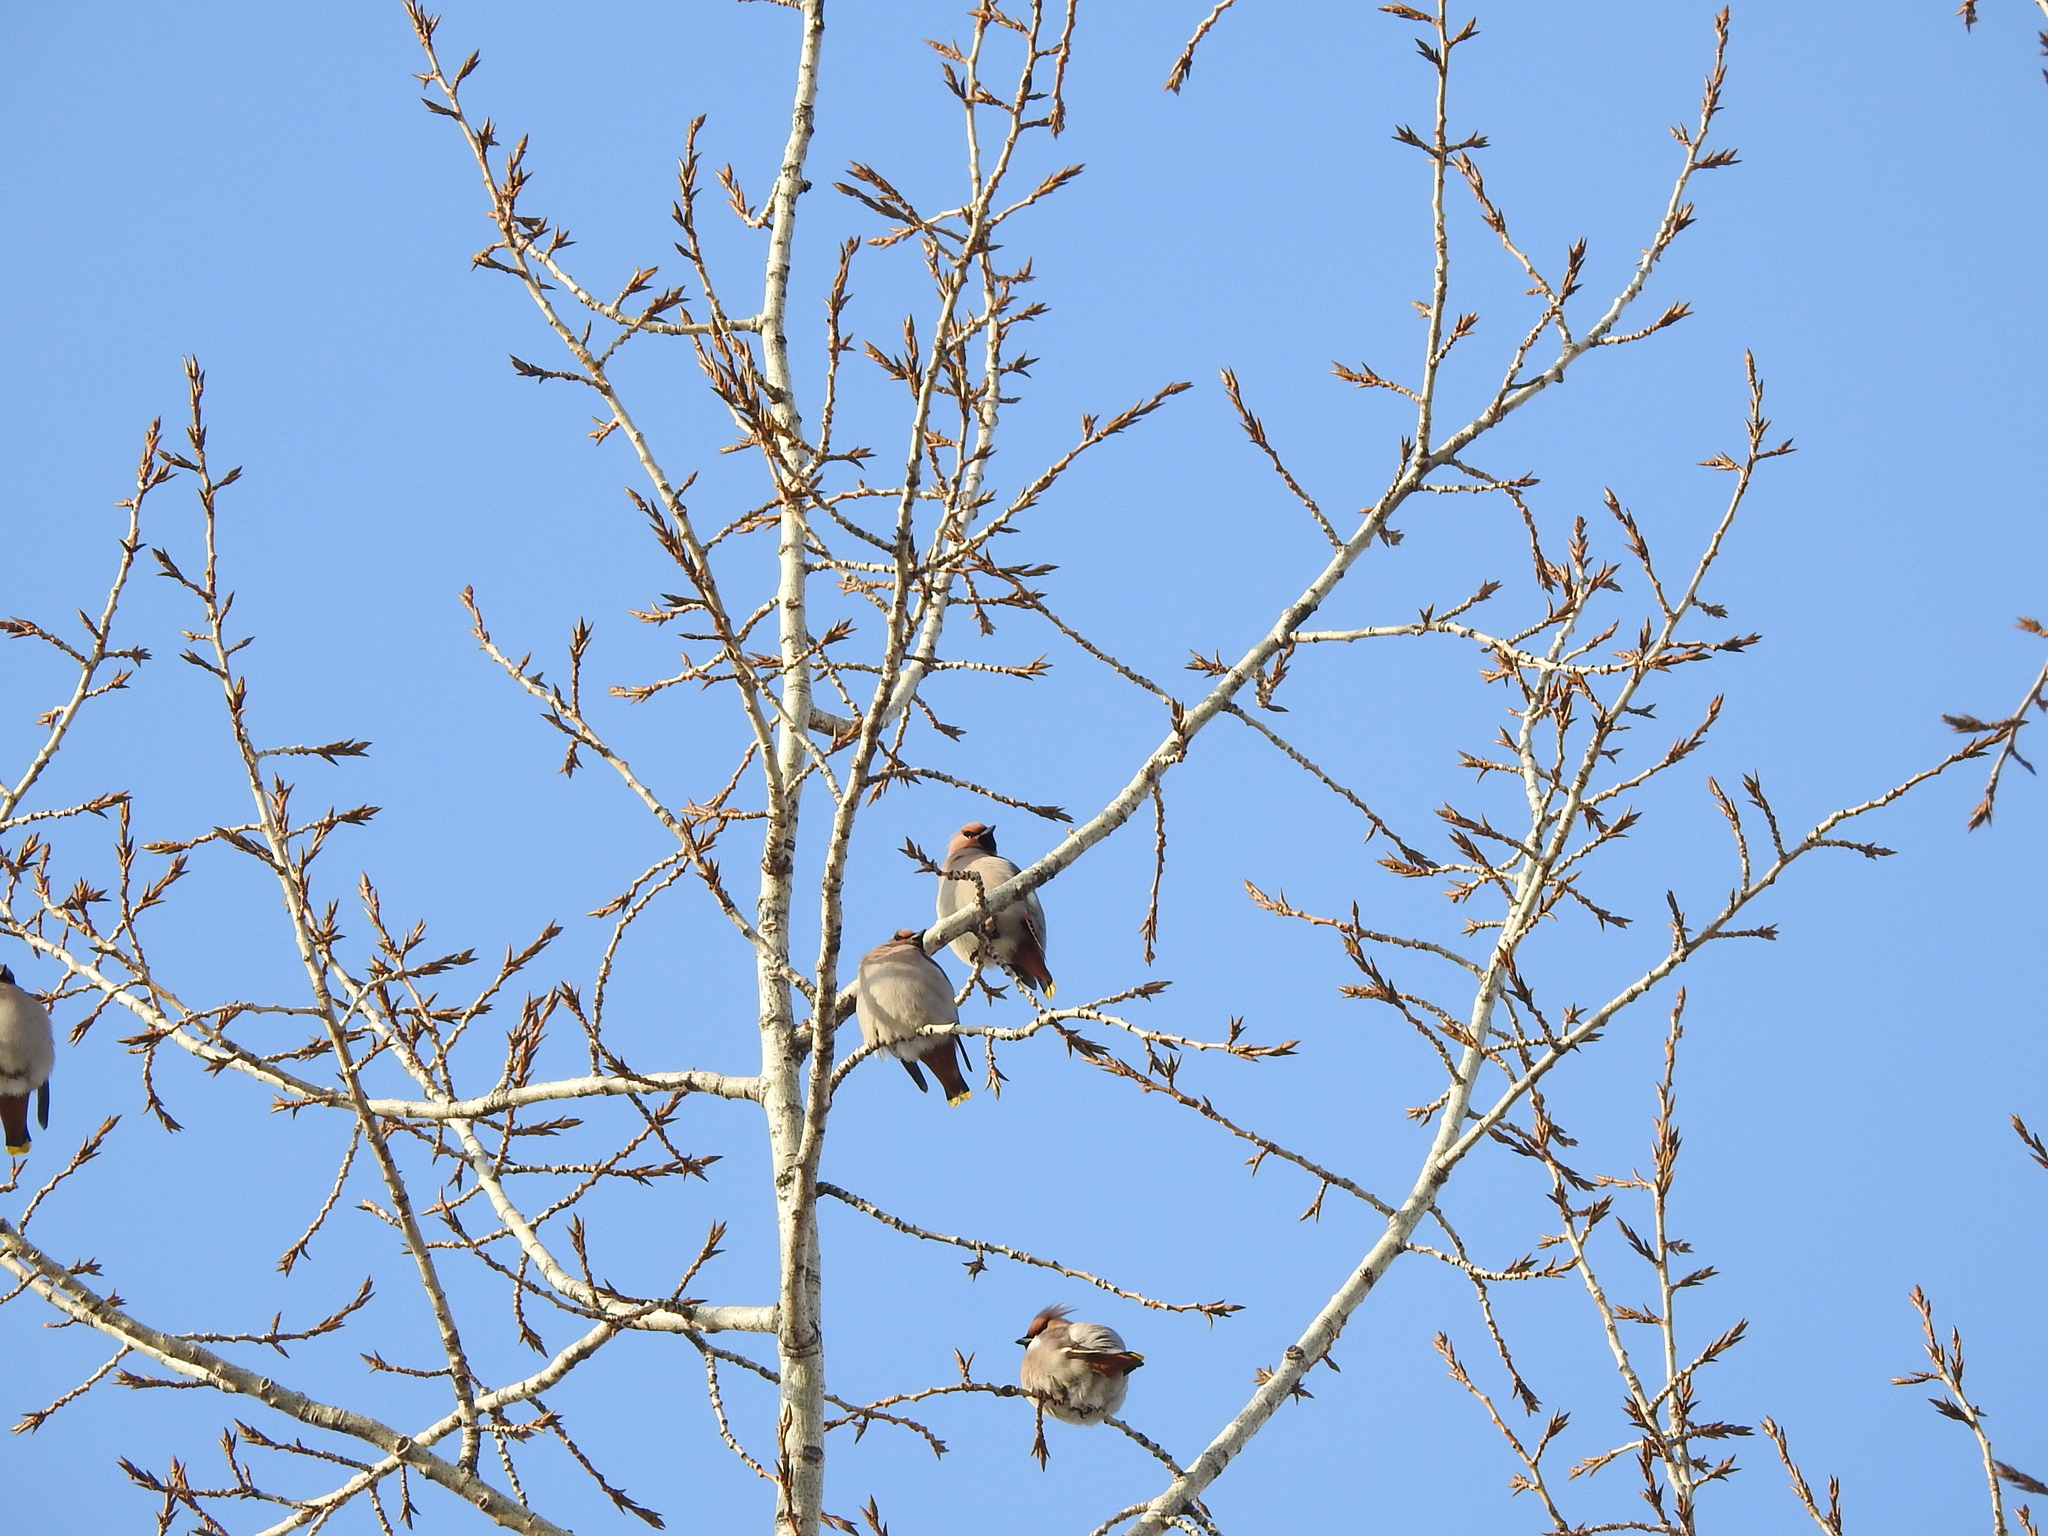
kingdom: Animalia
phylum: Chordata
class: Aves
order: Passeriformes
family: Bombycillidae
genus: Bombycilla
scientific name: Bombycilla garrulus
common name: Bohemian waxwing
